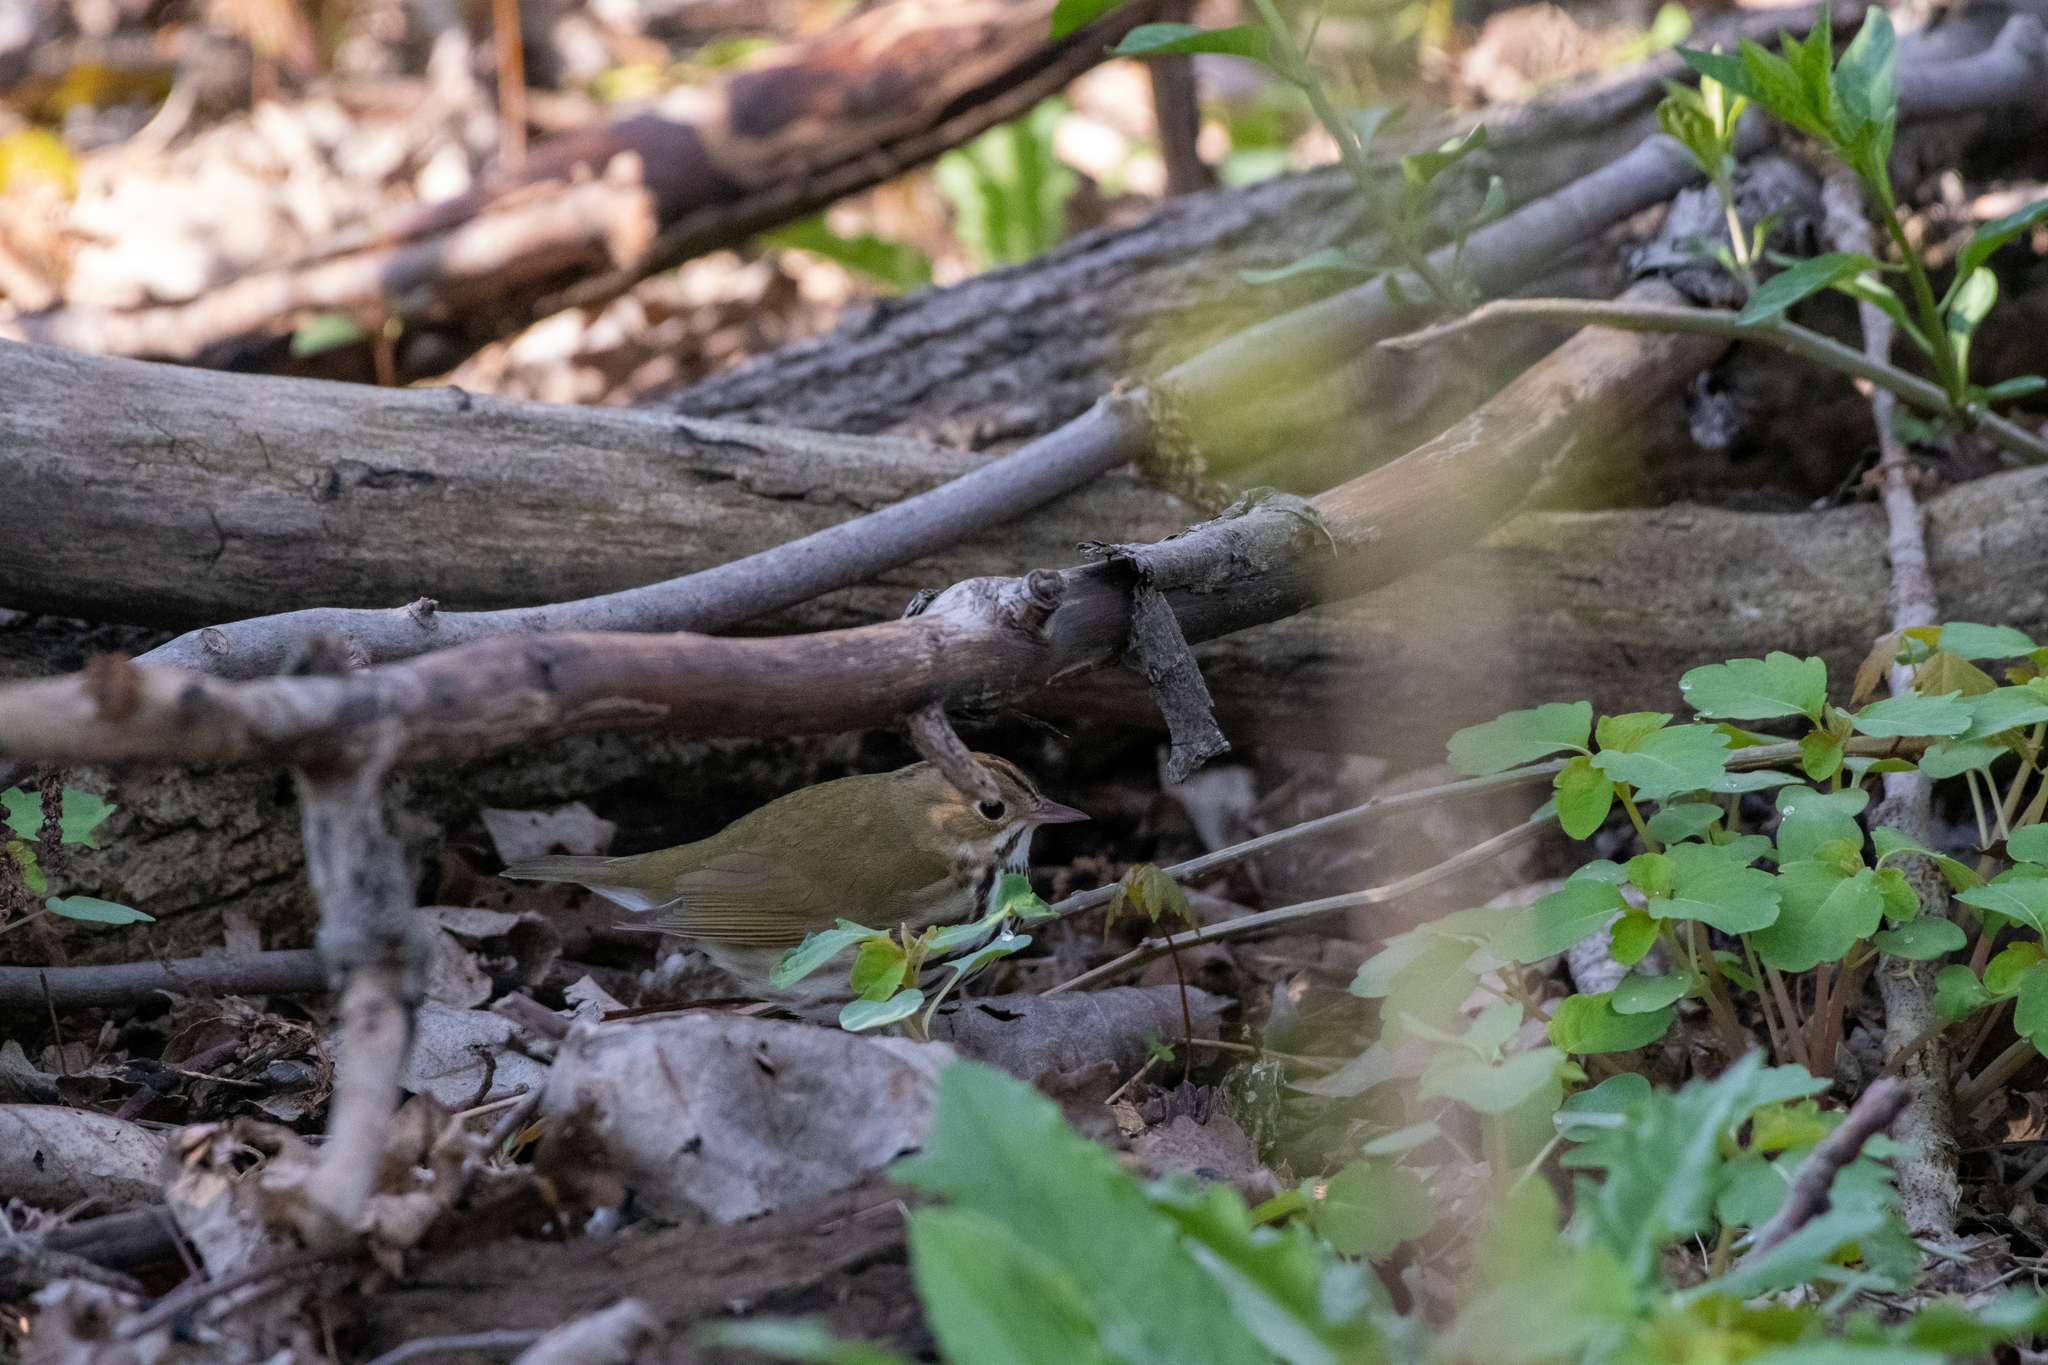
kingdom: Animalia
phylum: Chordata
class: Aves
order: Passeriformes
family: Parulidae
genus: Seiurus
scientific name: Seiurus aurocapilla
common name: Ovenbird
